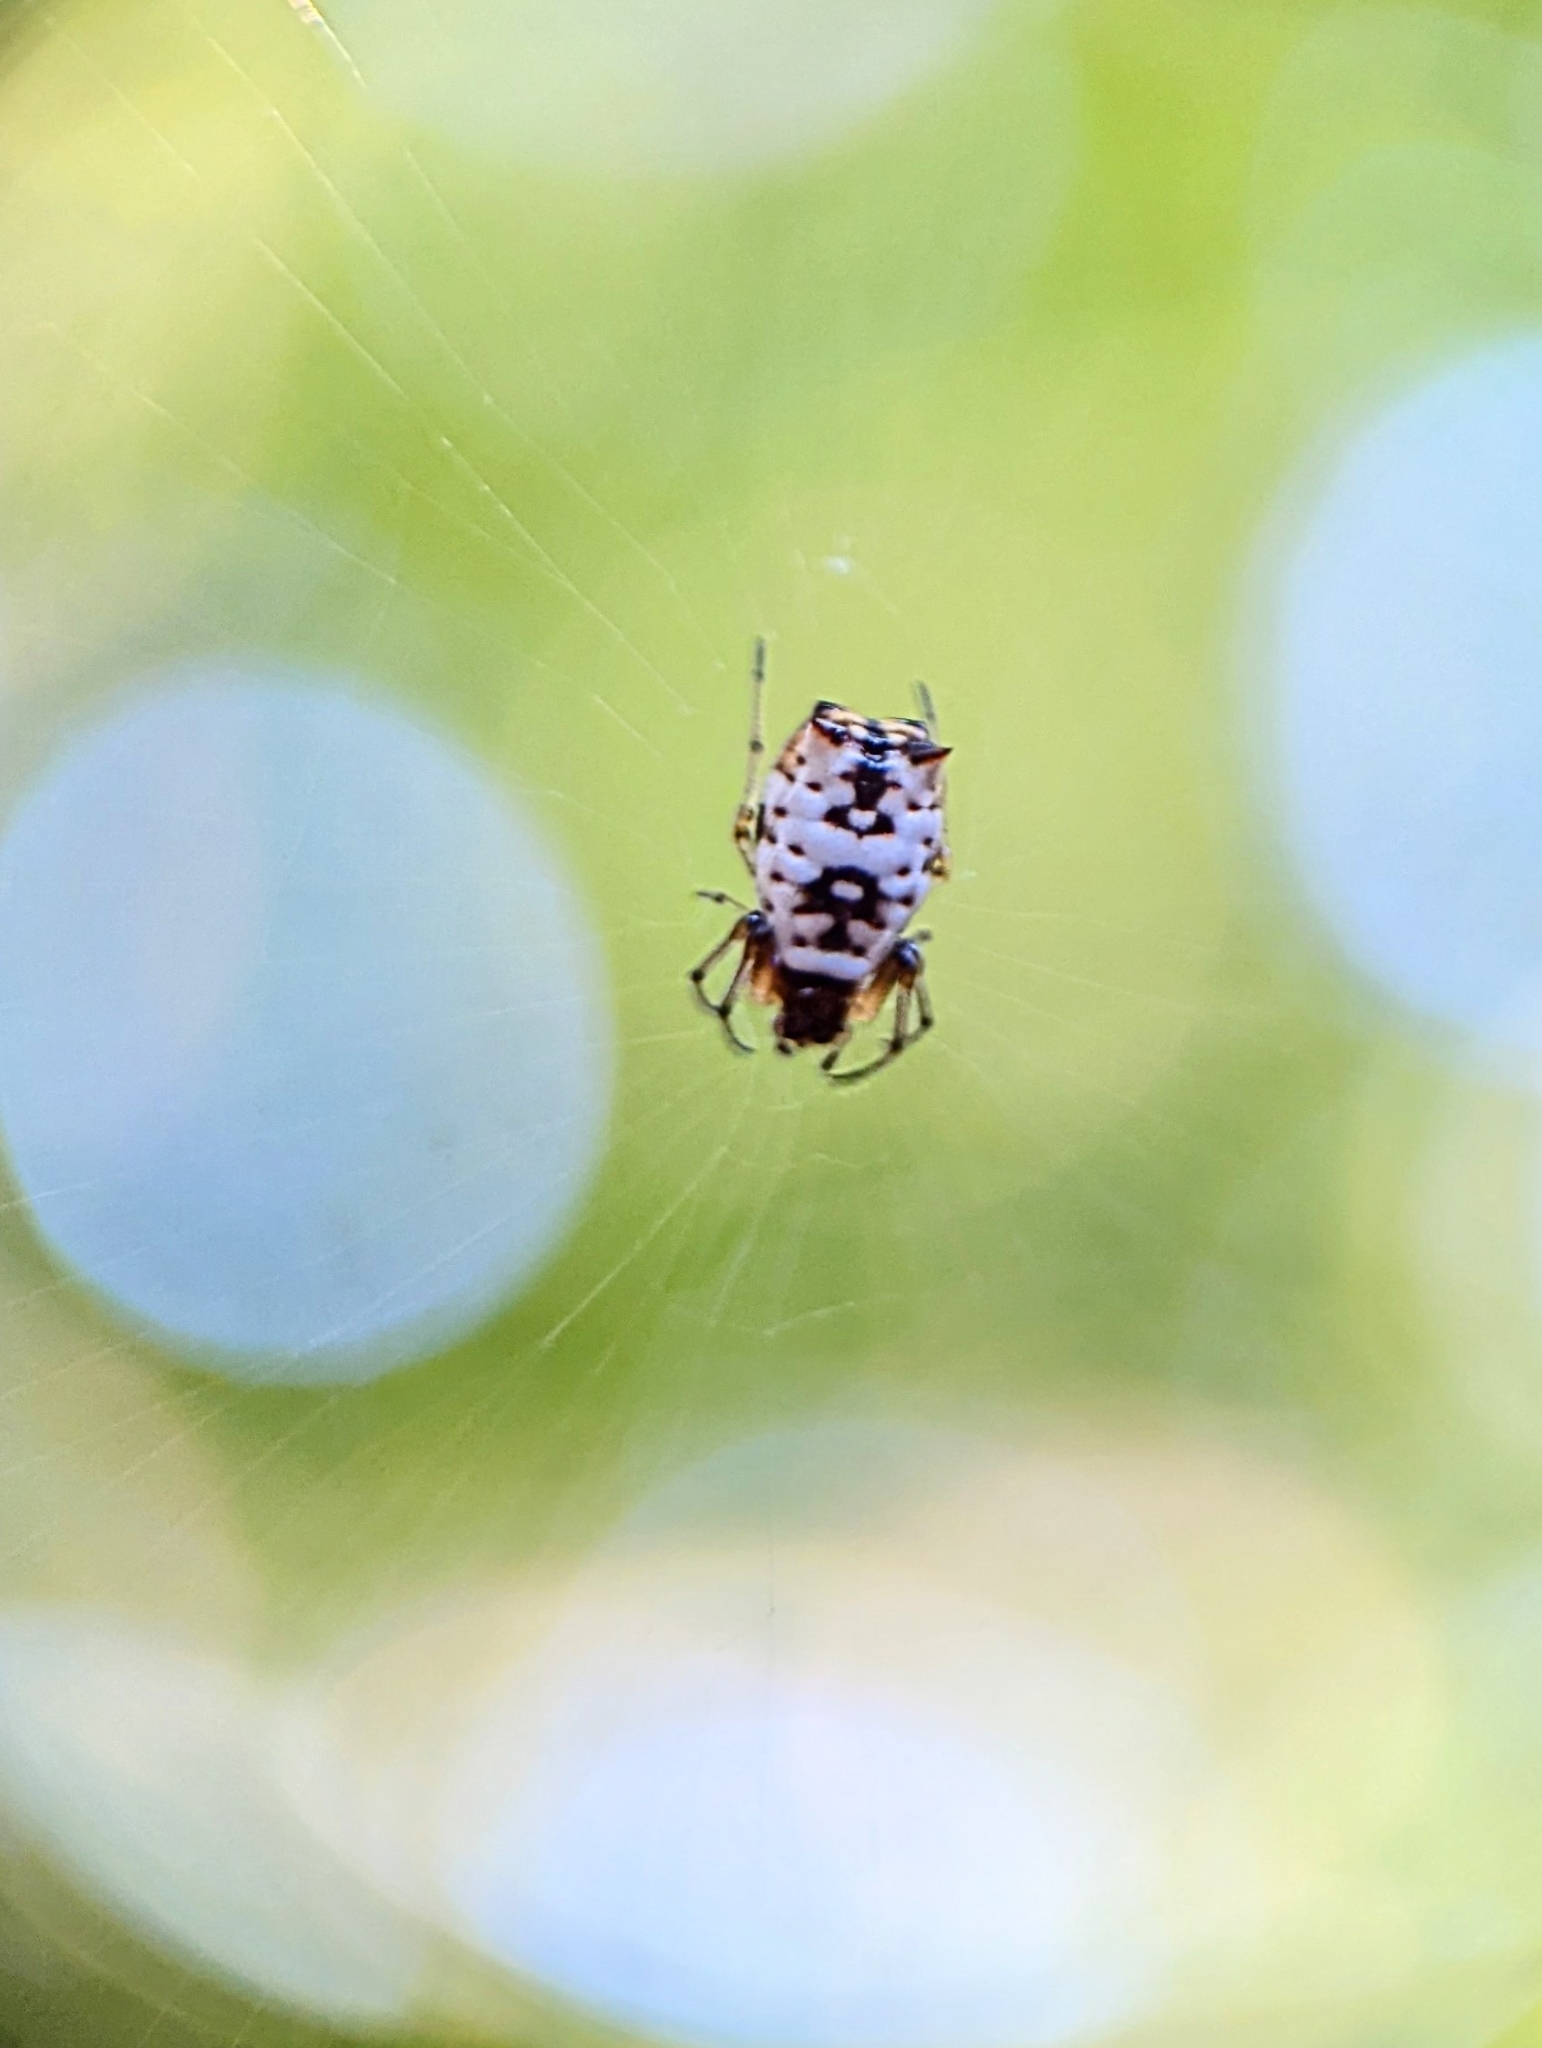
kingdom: Animalia
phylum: Arthropoda
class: Arachnida
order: Araneae
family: Araneidae
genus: Micrathena
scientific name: Micrathena mitrata
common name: Orb weavers
